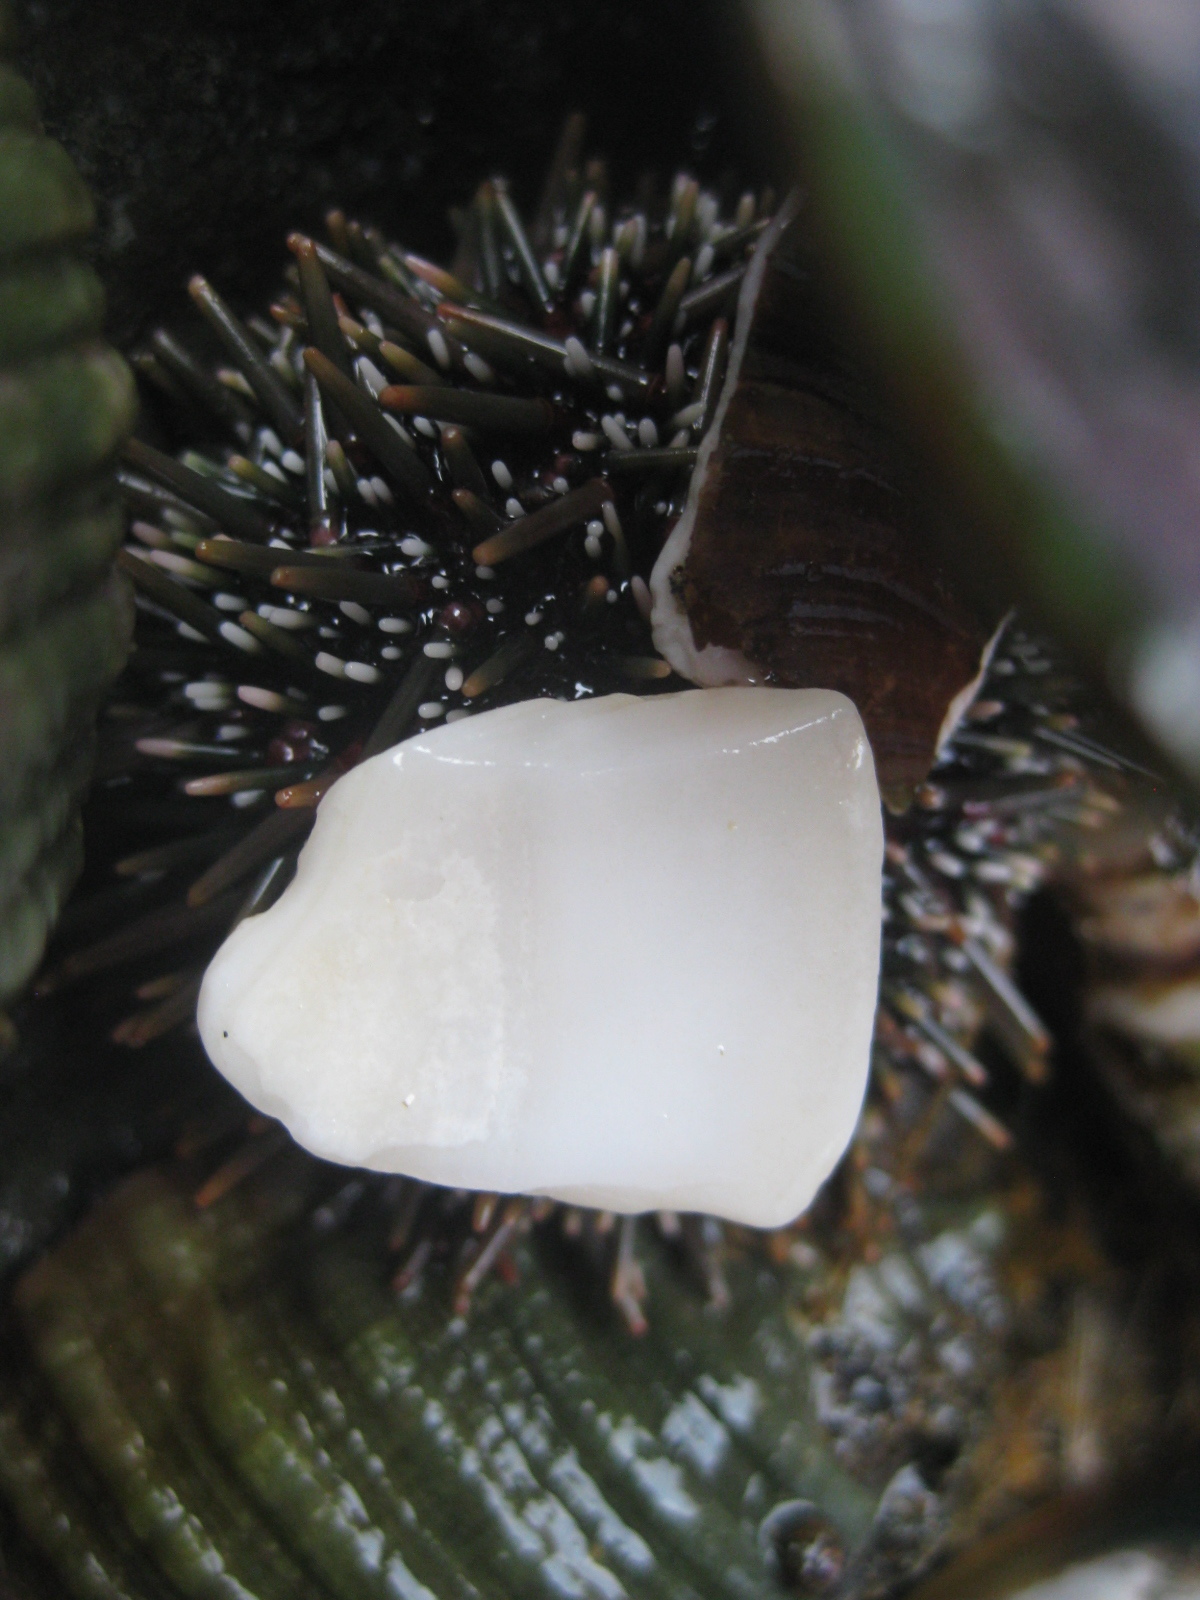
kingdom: Animalia
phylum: Echinodermata
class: Echinoidea
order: Camarodonta
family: Echinometridae
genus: Evechinus
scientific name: Evechinus chloroticus
